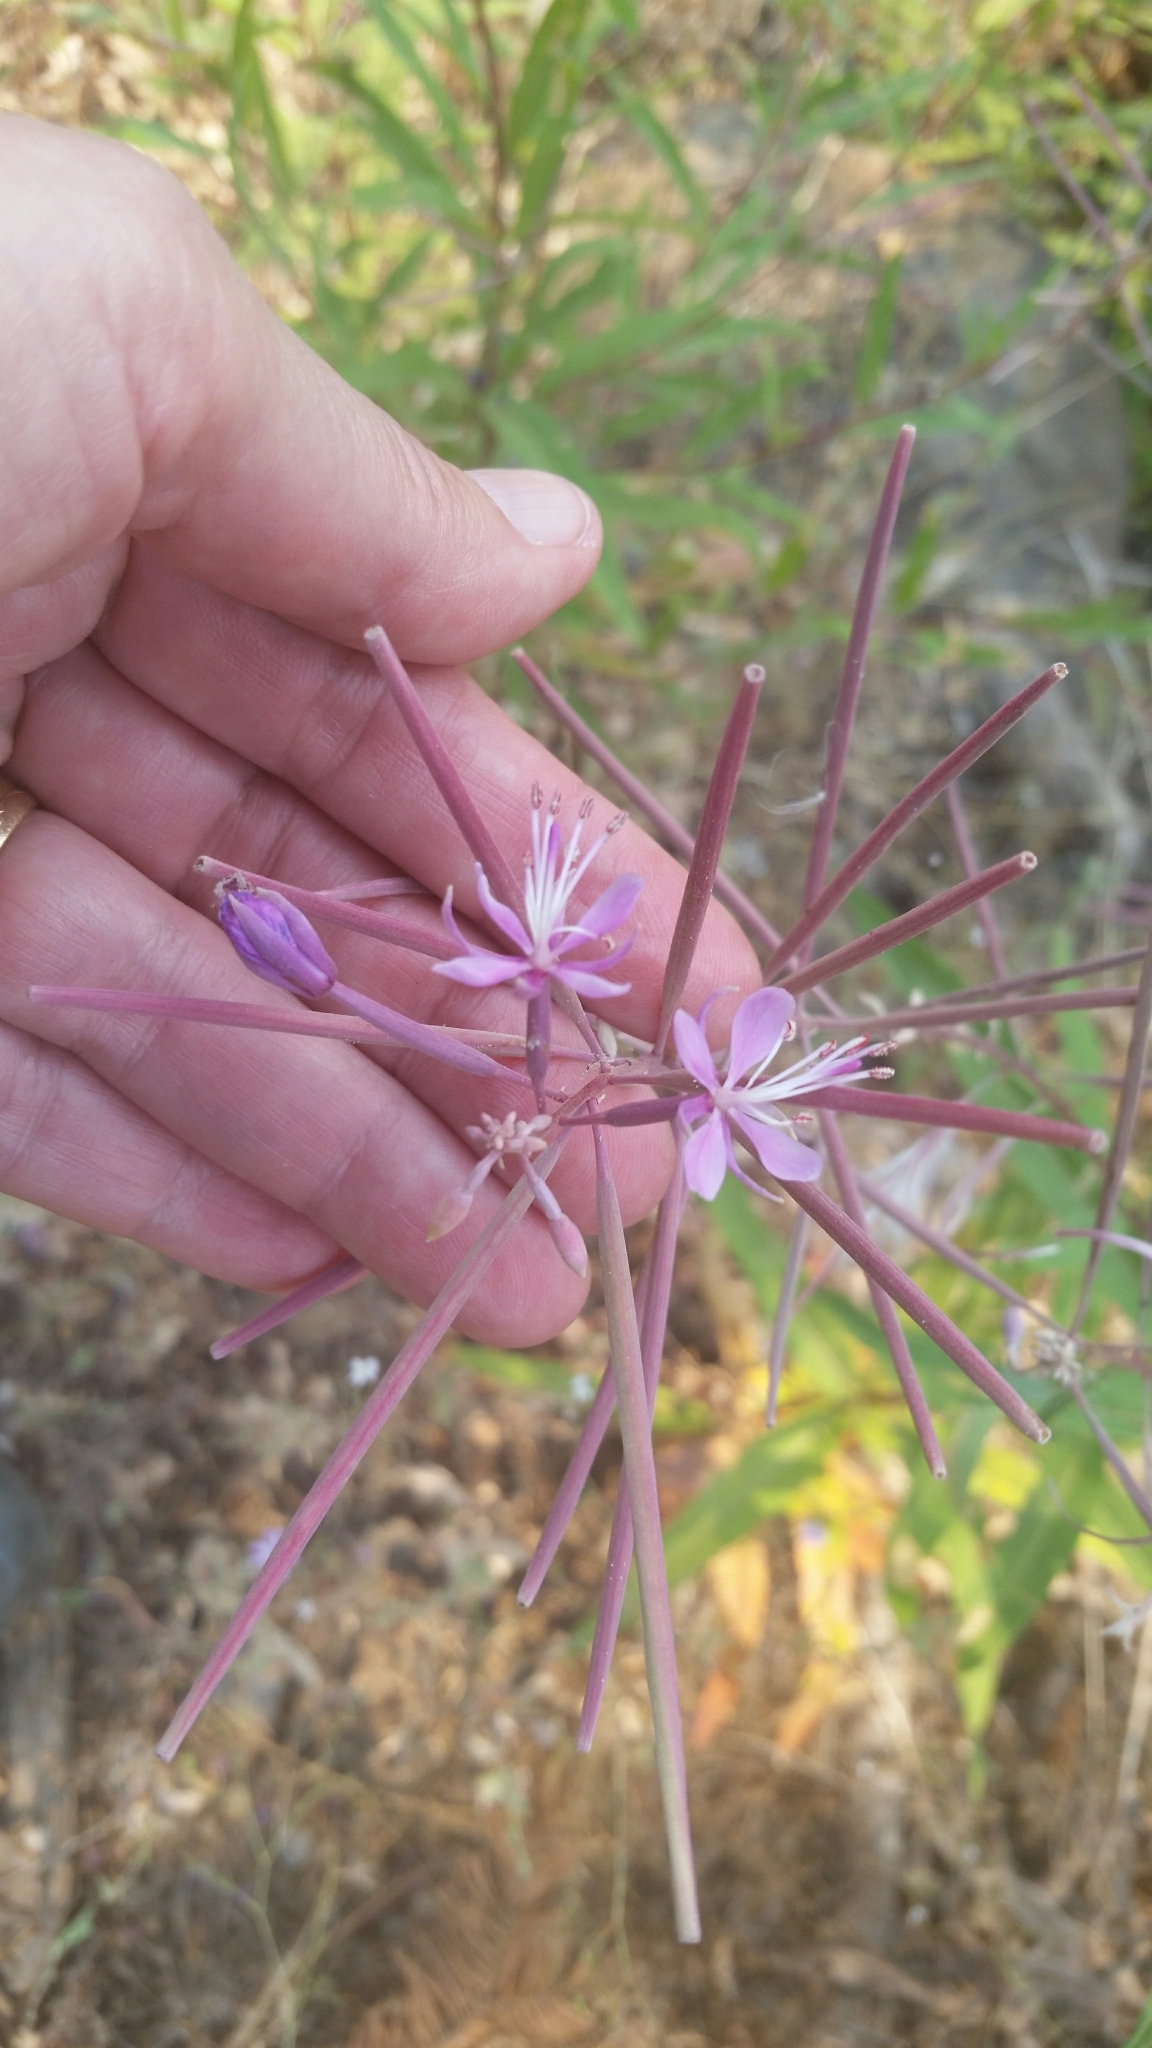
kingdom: Plantae
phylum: Tracheophyta
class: Magnoliopsida
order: Myrtales
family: Onagraceae
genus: Chamaenerion
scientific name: Chamaenerion angustifolium
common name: Fireweed
